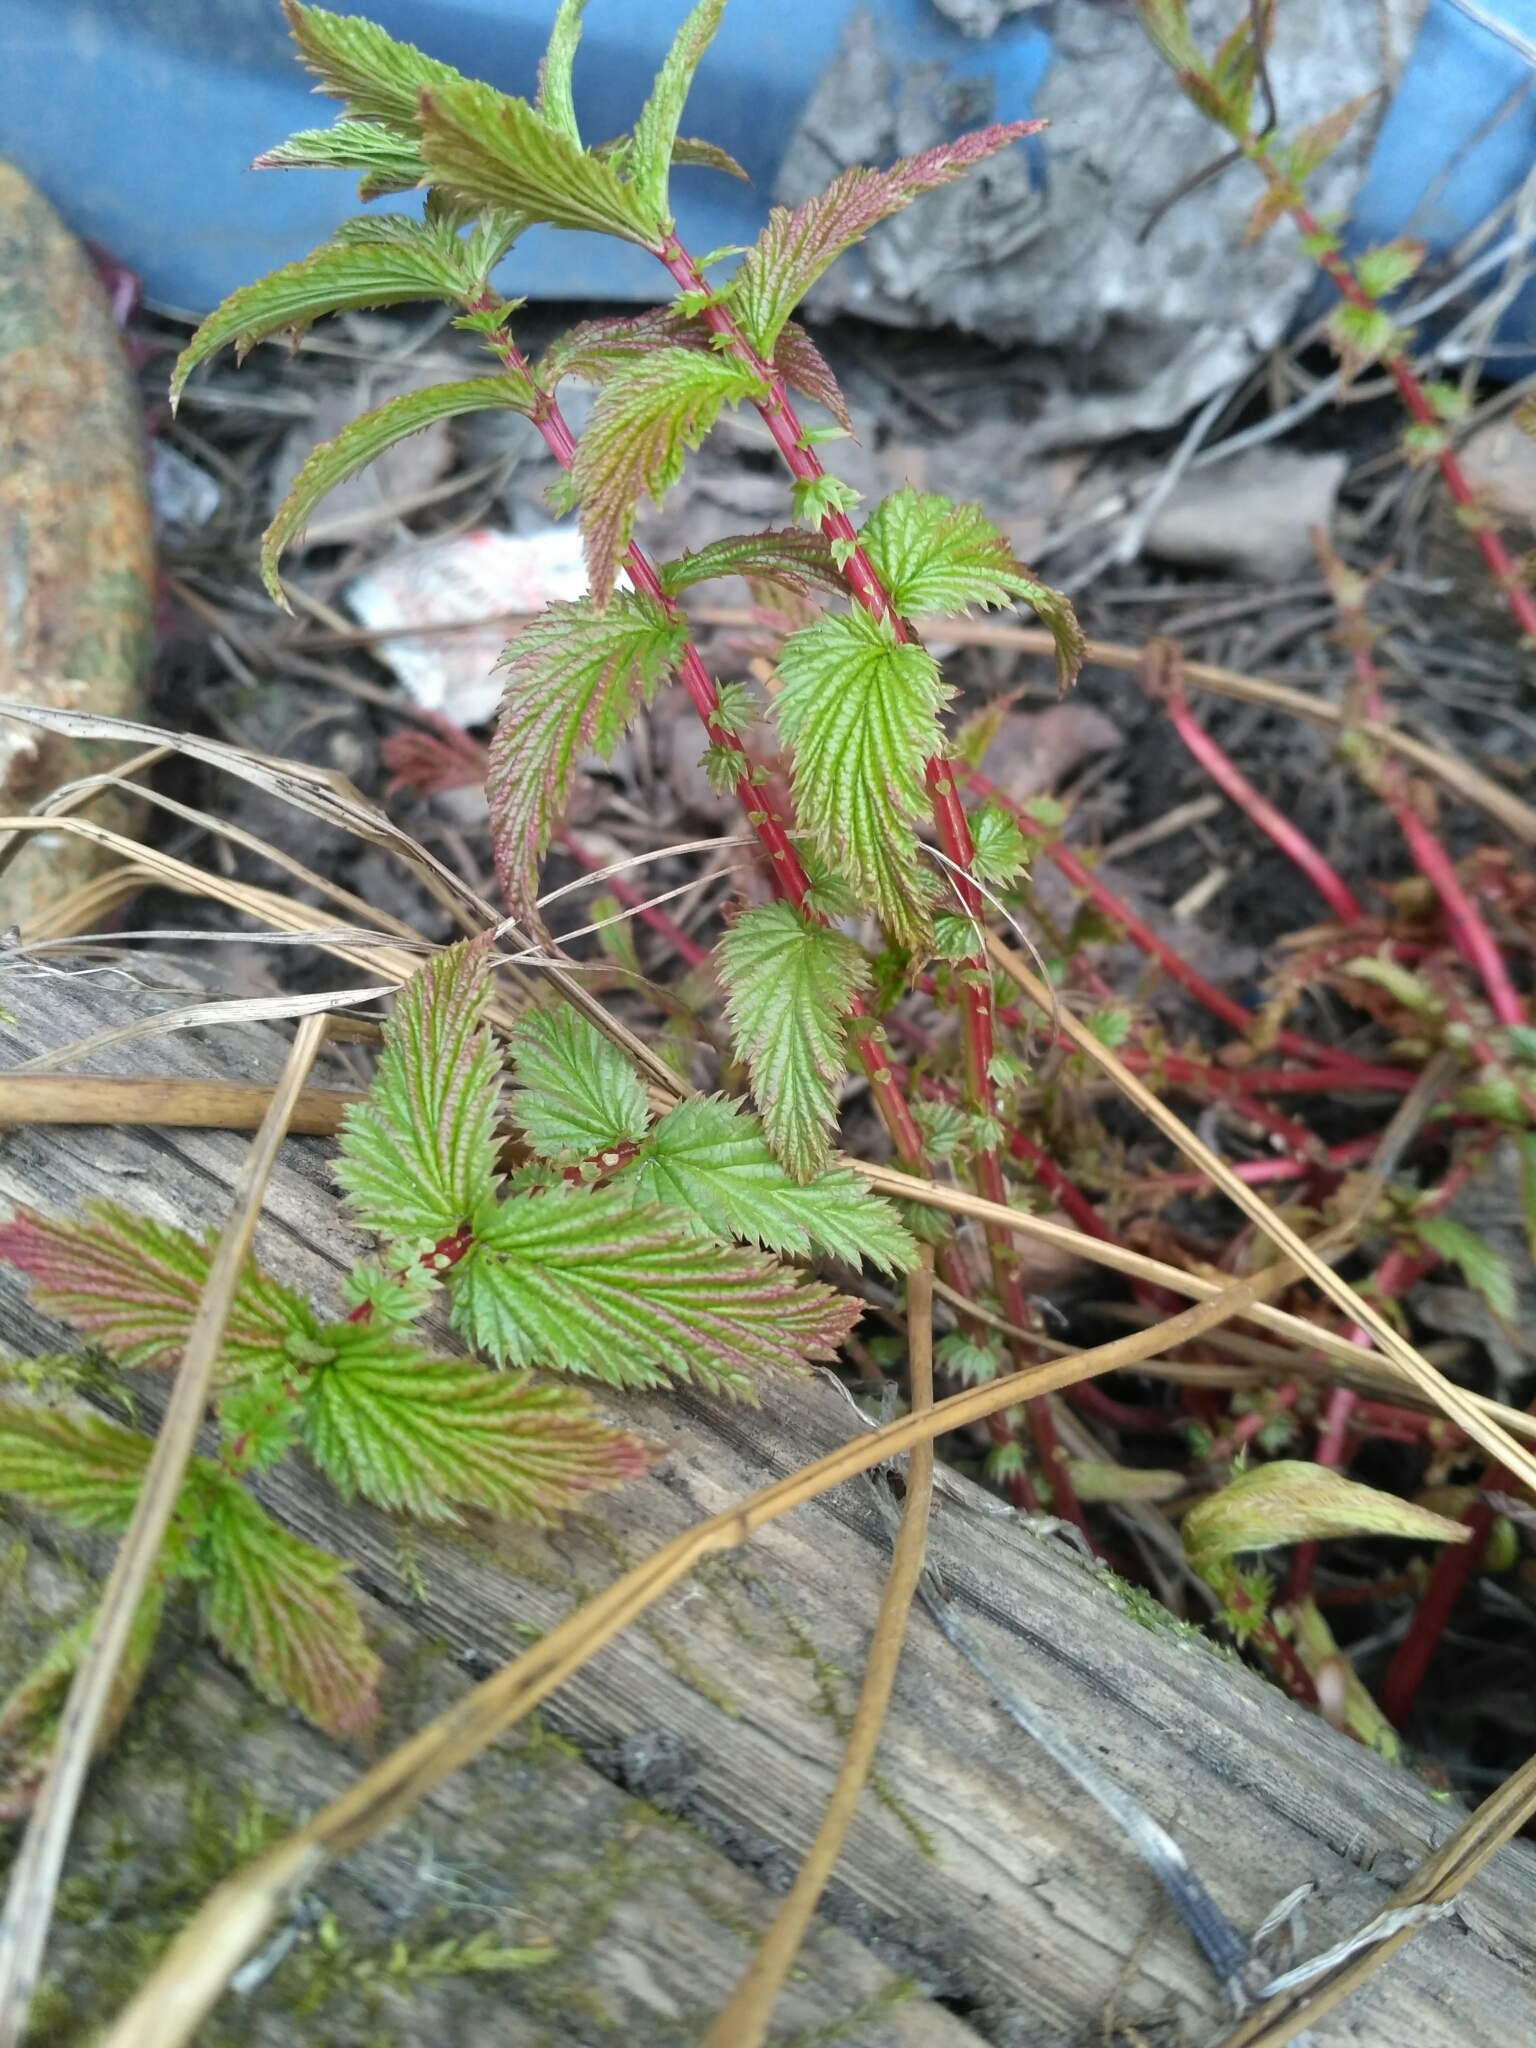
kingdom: Plantae
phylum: Tracheophyta
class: Magnoliopsida
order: Rosales
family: Rosaceae
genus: Filipendula
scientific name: Filipendula ulmaria
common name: Meadowsweet
